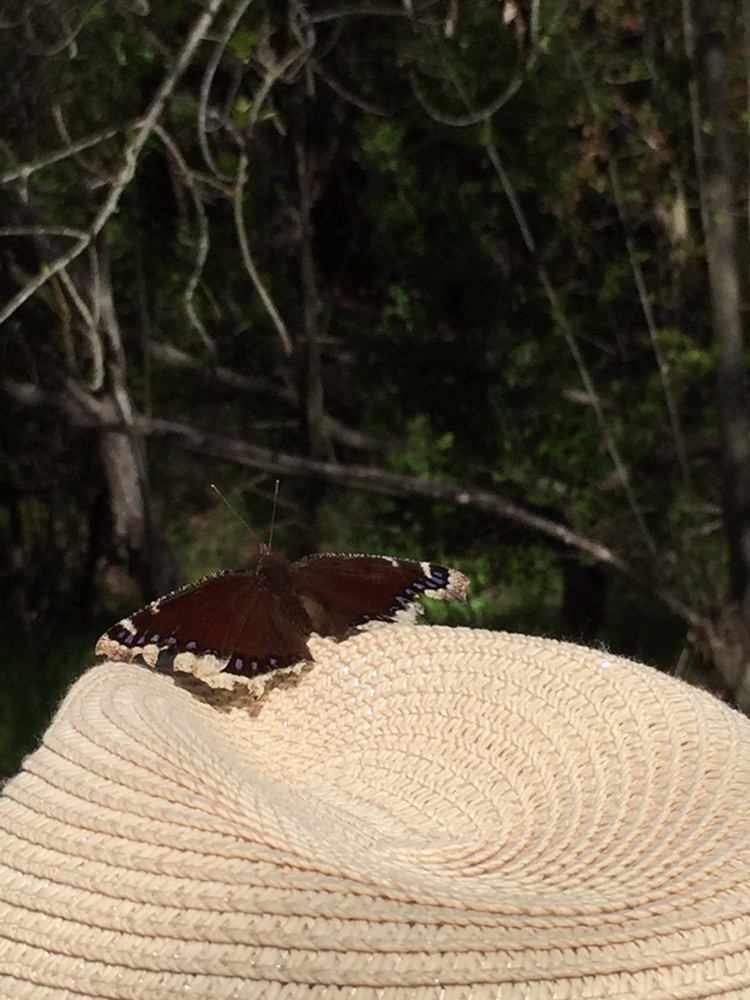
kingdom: Animalia
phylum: Arthropoda
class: Insecta
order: Lepidoptera
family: Nymphalidae
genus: Nymphalis
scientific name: Nymphalis antiopa
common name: Camberwell beauty
